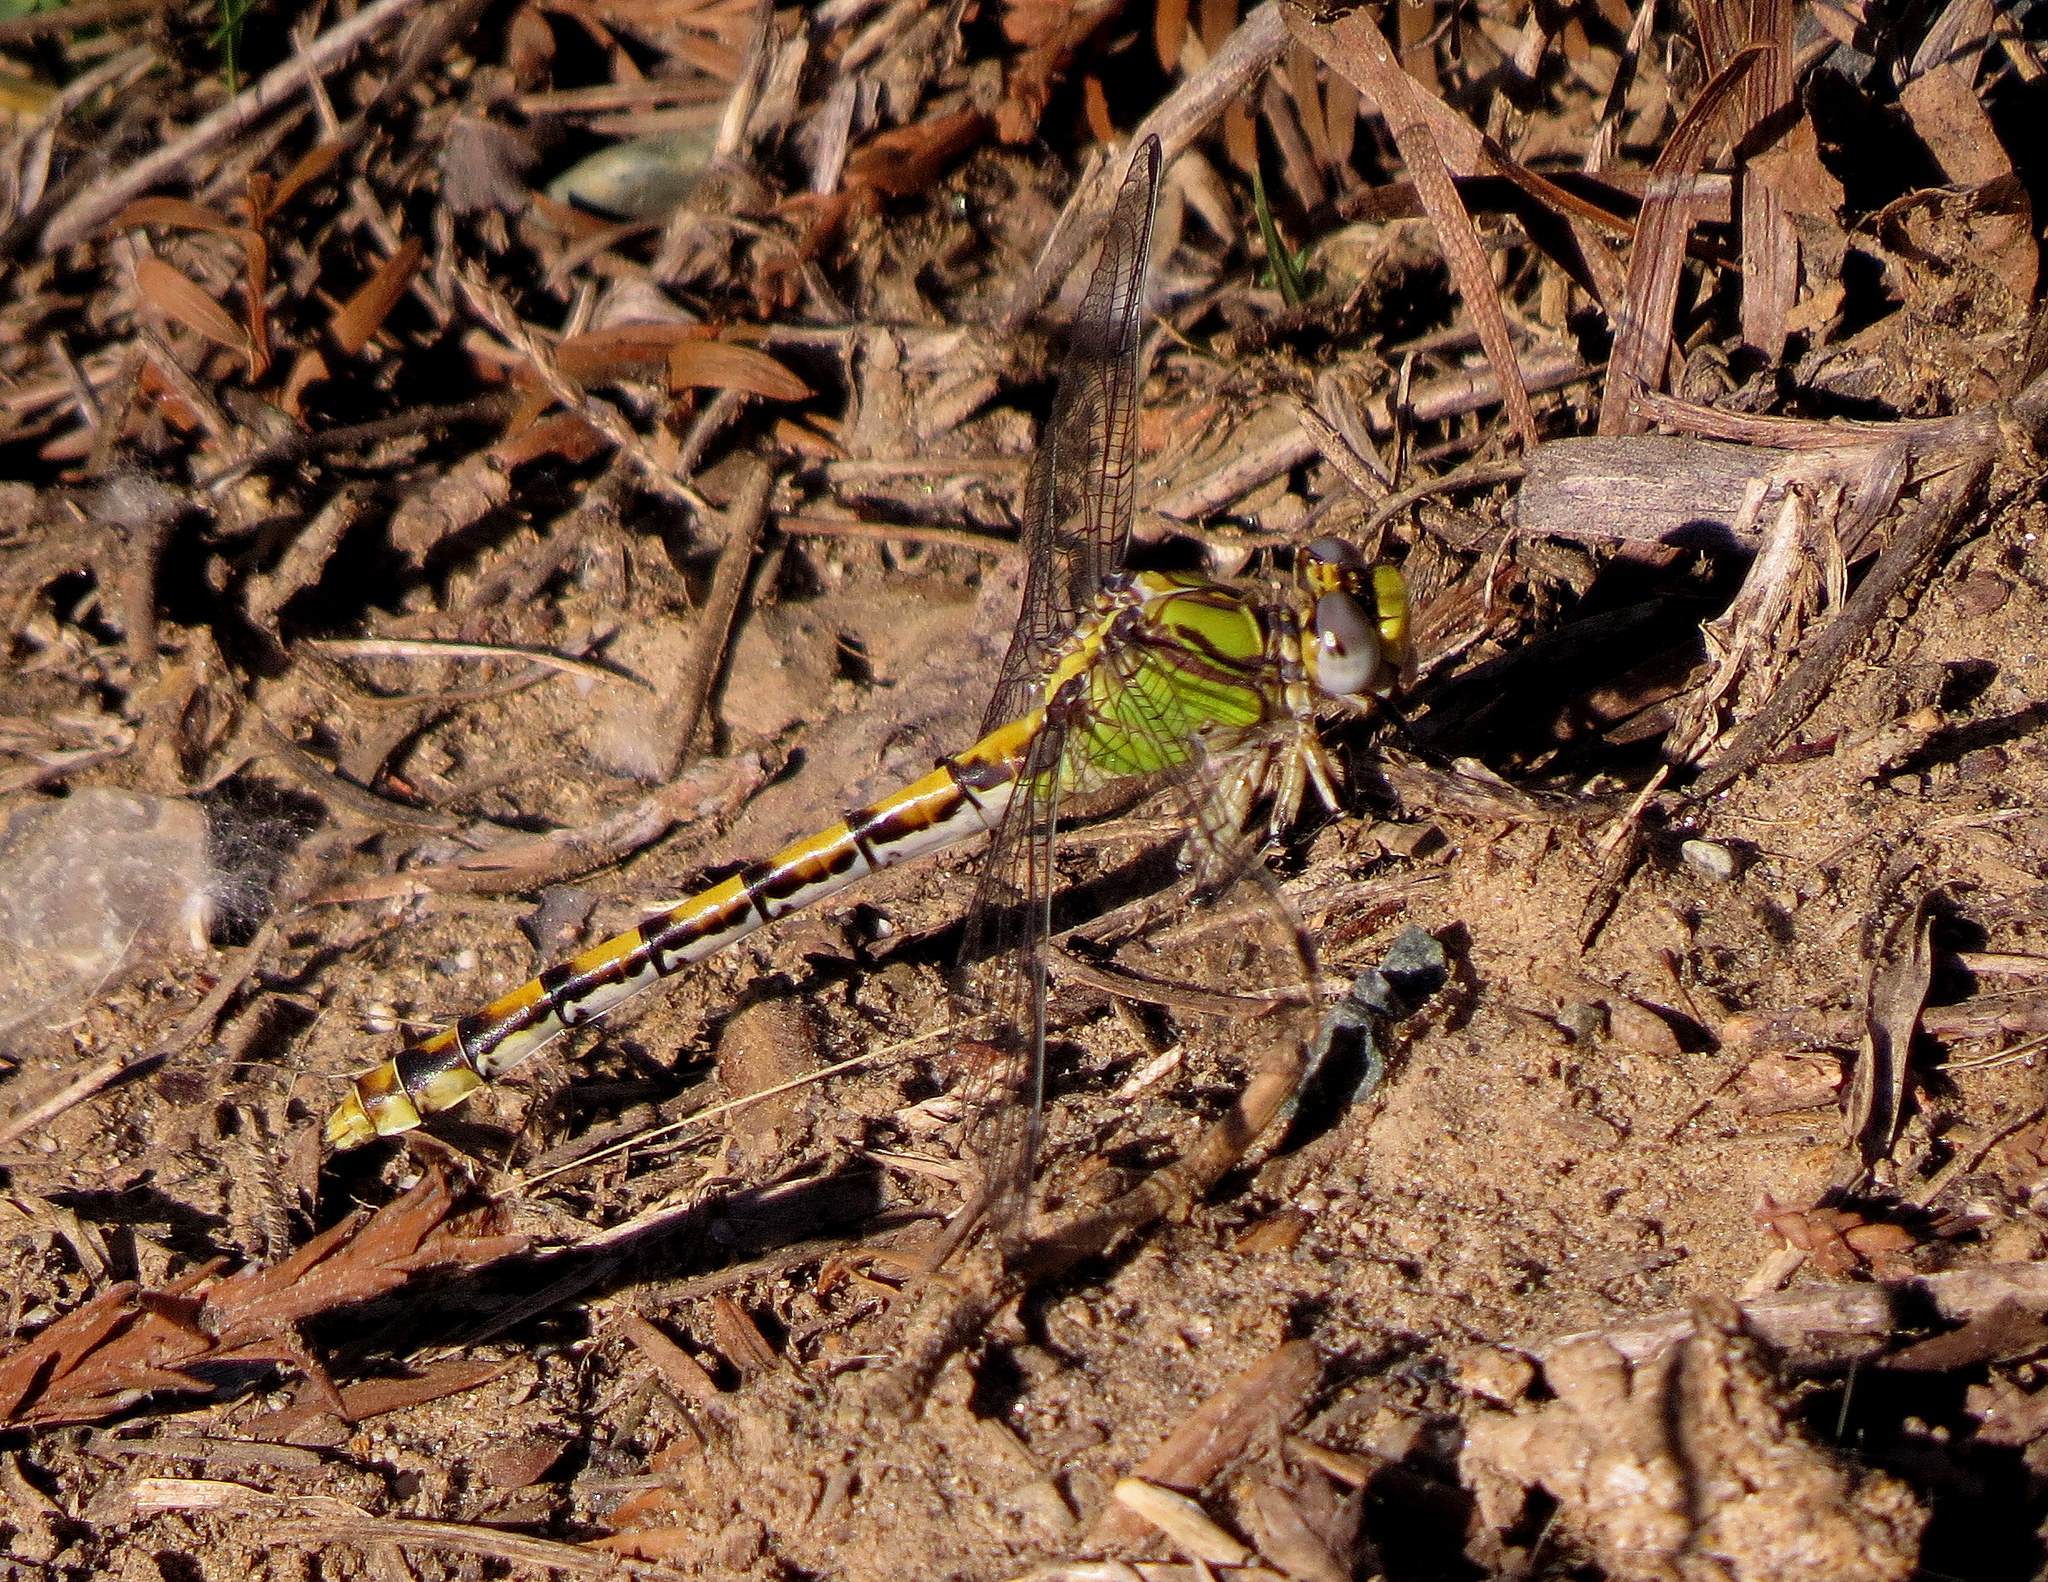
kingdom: Animalia
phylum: Arthropoda
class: Insecta
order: Odonata
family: Gomphidae
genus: Ophiogomphus
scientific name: Ophiogomphus occidentis
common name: Sinuous snaketail
